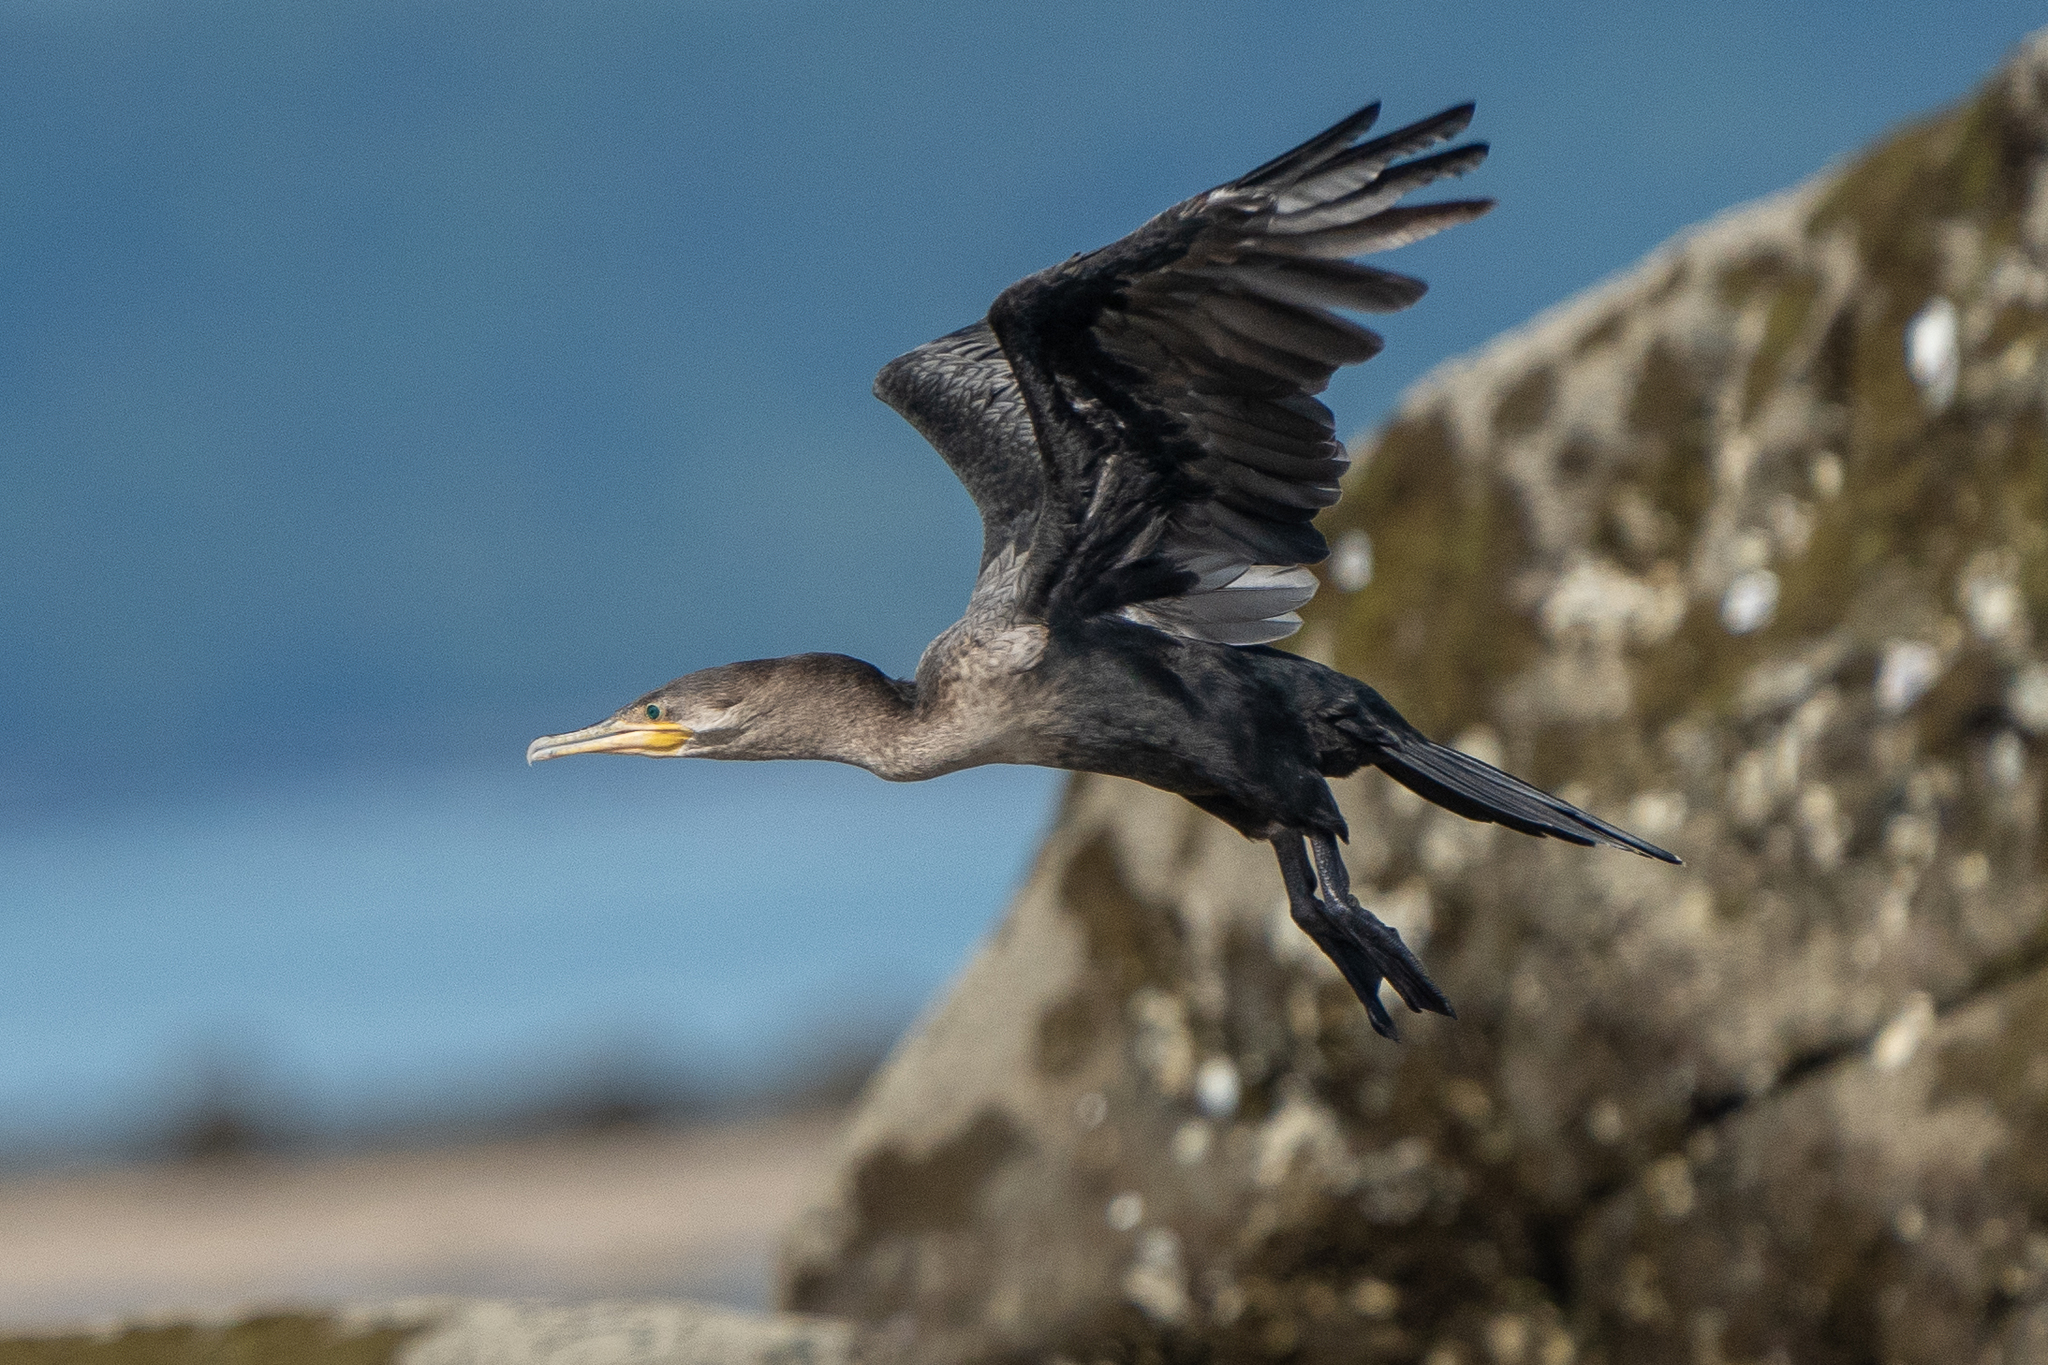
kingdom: Animalia
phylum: Chordata
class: Aves
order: Suliformes
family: Phalacrocoracidae
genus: Phalacrocorax
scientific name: Phalacrocorax brasilianus
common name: Neotropic cormorant
